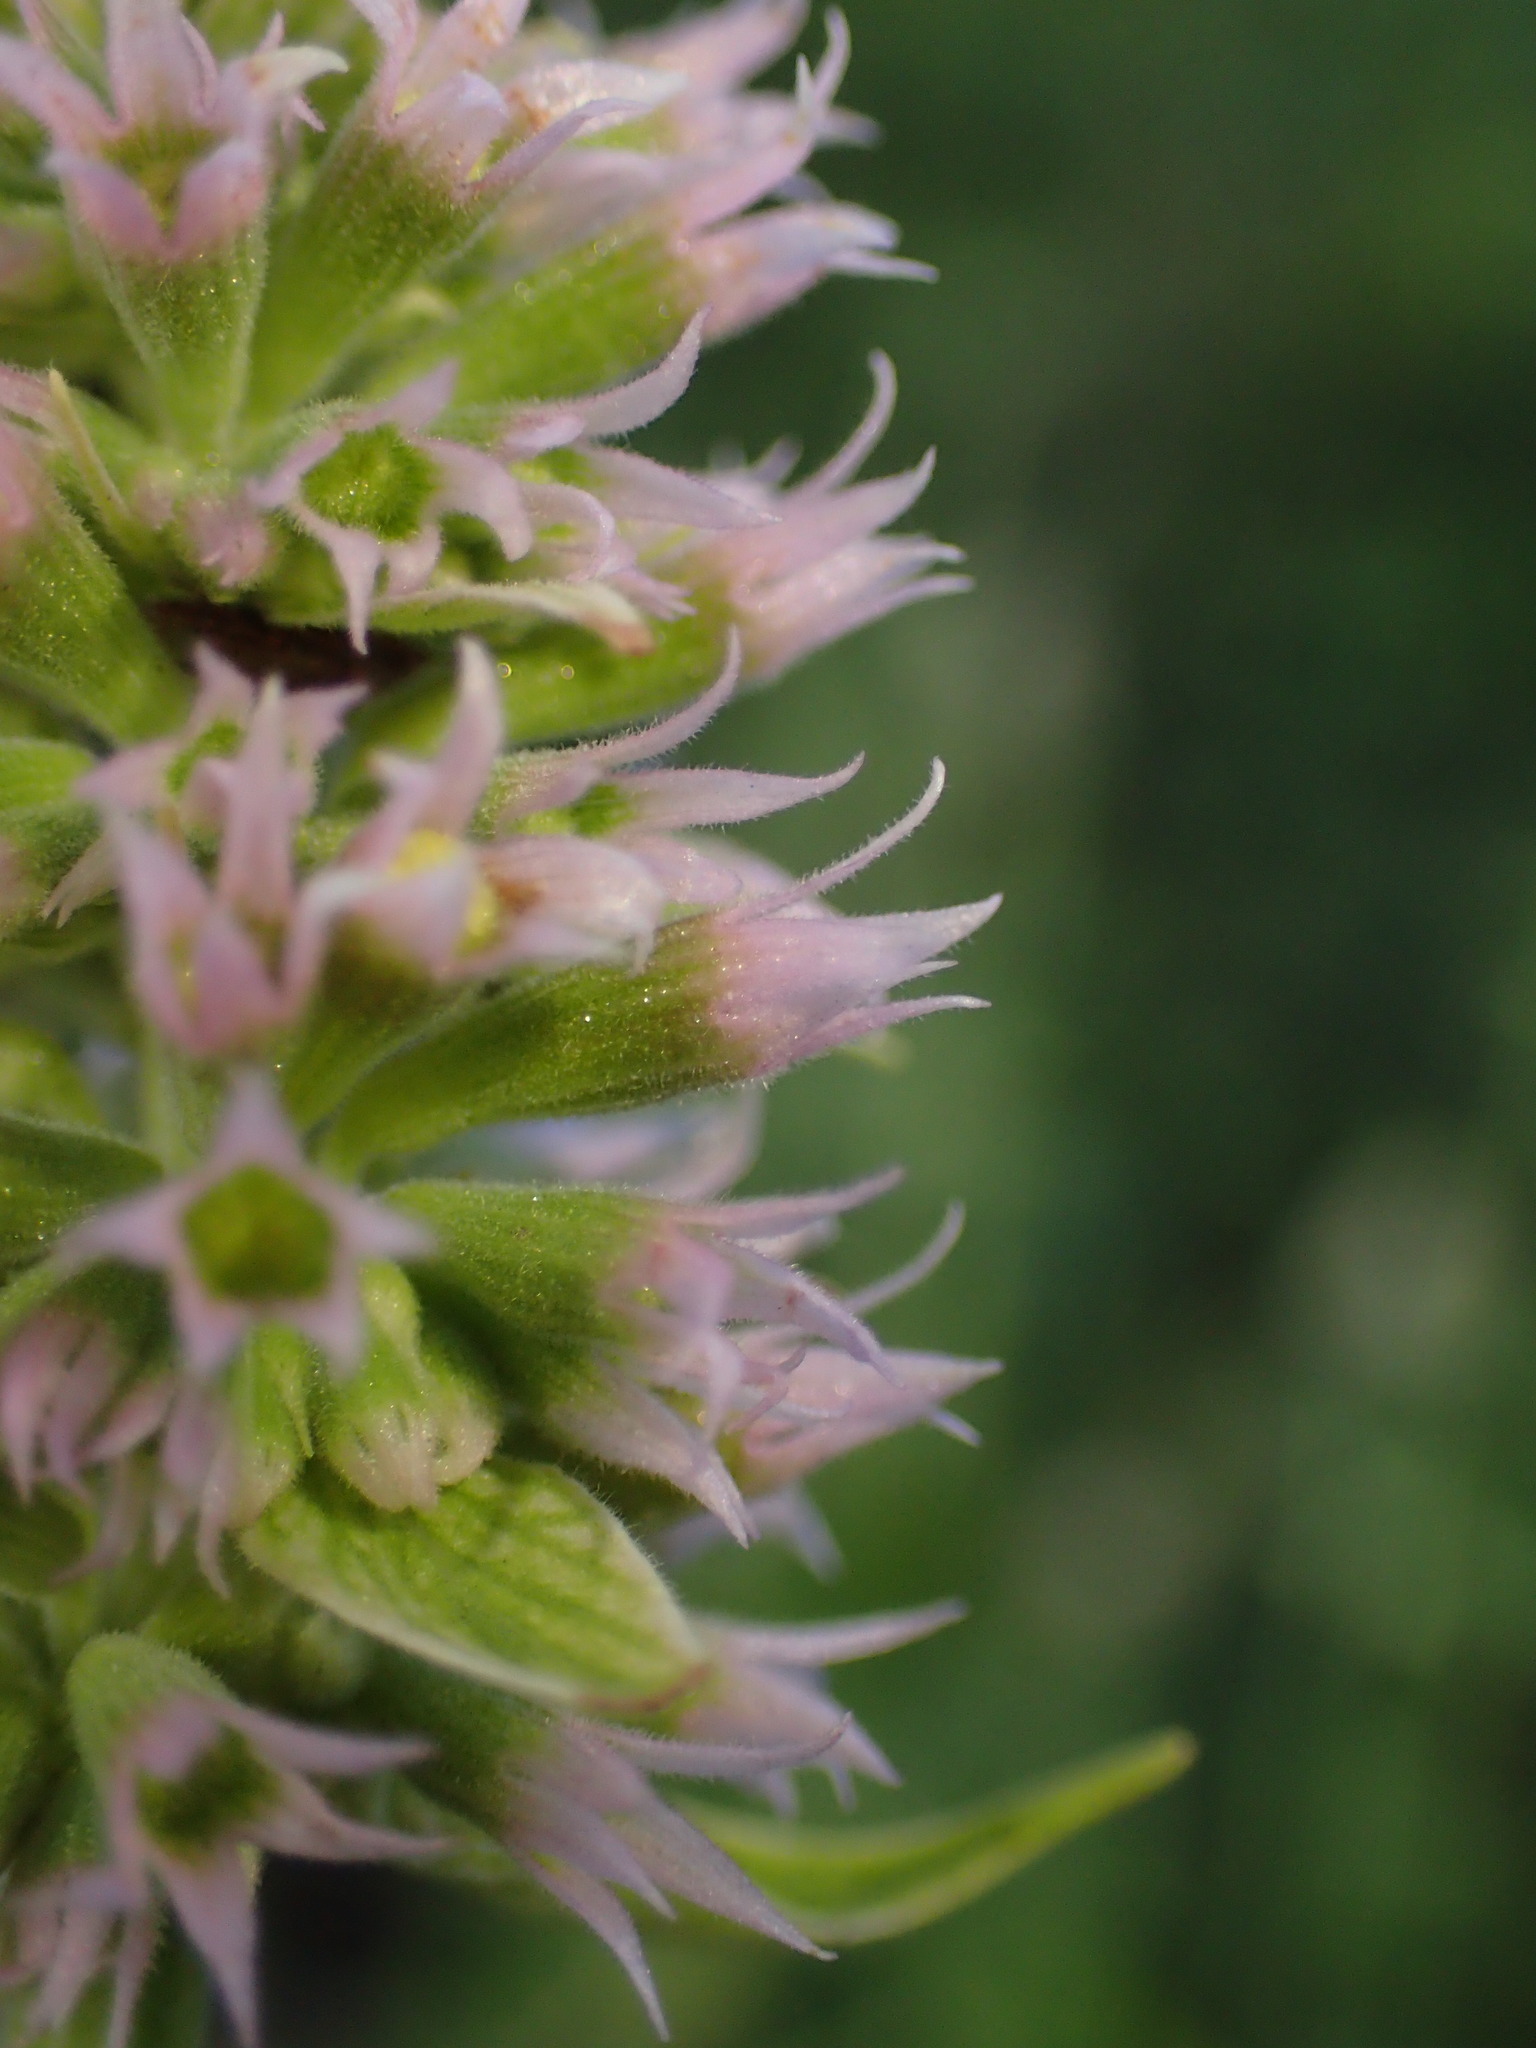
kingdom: Plantae
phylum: Tracheophyta
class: Magnoliopsida
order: Lamiales
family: Lamiaceae
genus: Agastache
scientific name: Agastache urticifolia
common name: Horsemint giant hyssop
